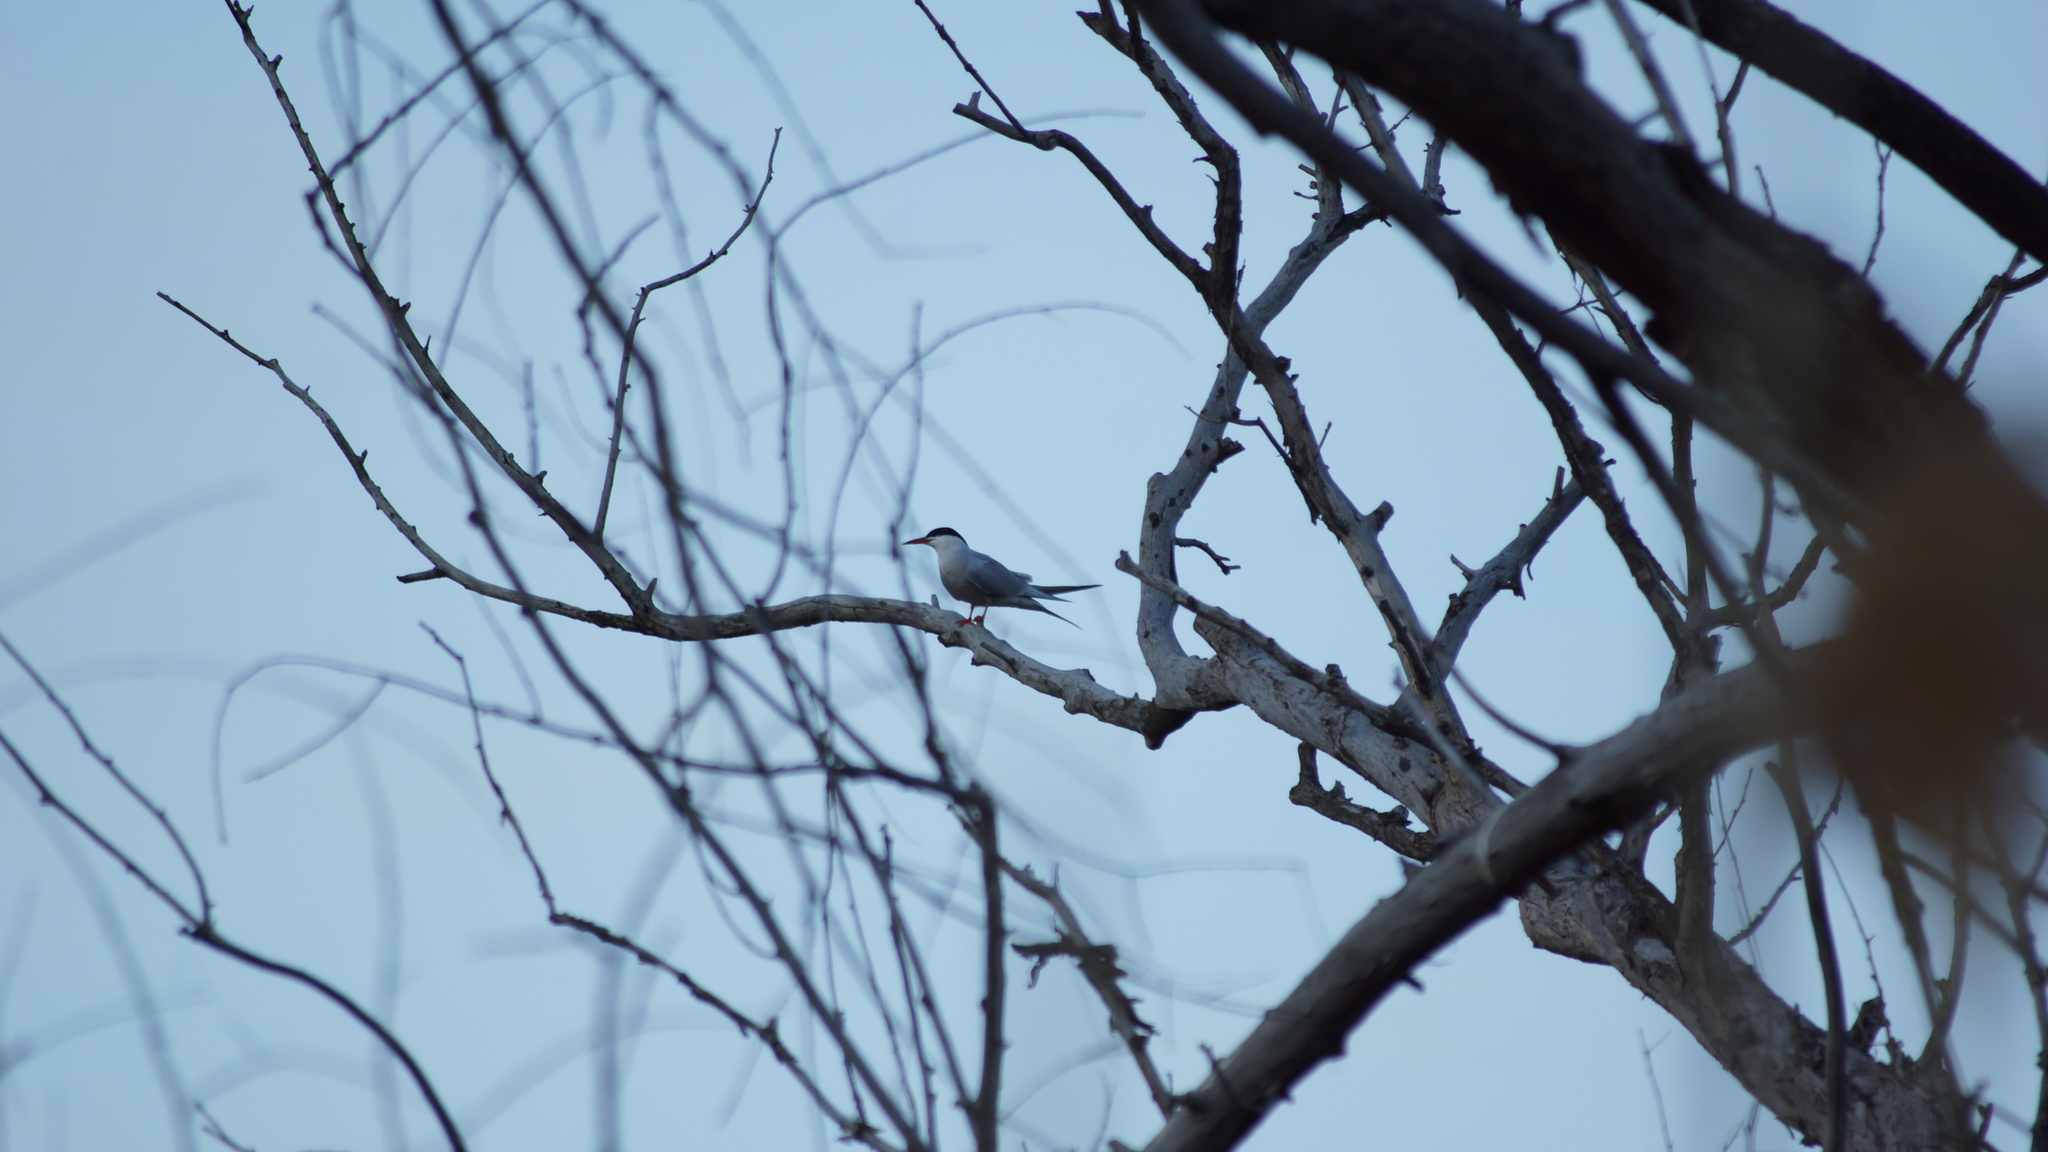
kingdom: Animalia
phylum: Chordata
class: Aves
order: Charadriiformes
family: Laridae
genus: Sterna
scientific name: Sterna hirundo
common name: Common tern
